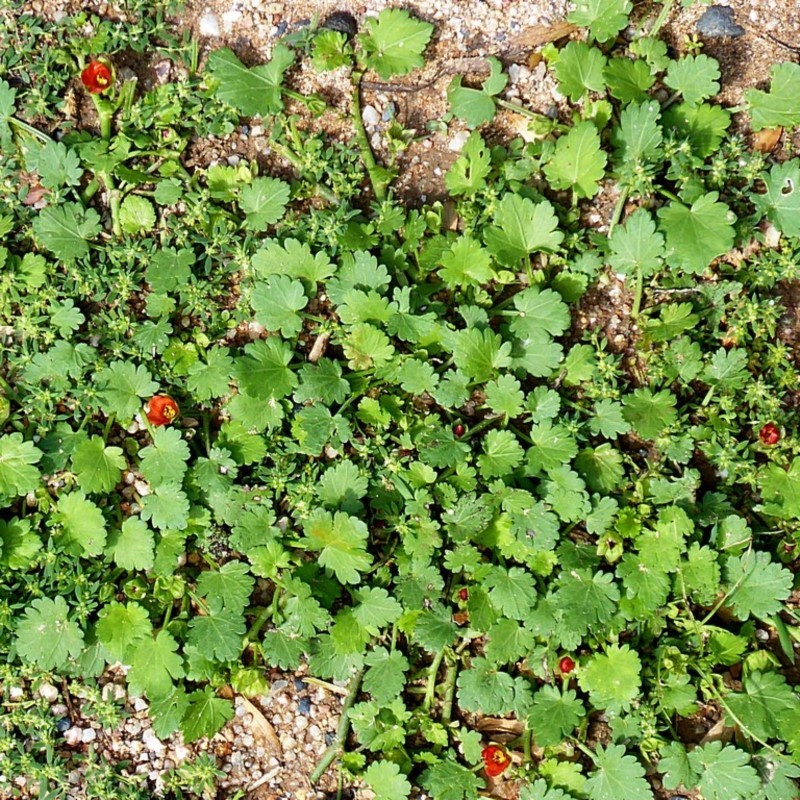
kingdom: Plantae
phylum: Tracheophyta
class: Magnoliopsida
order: Malvales
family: Malvaceae
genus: Modiola
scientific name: Modiola caroliniana
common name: Carolina bristlemallow
